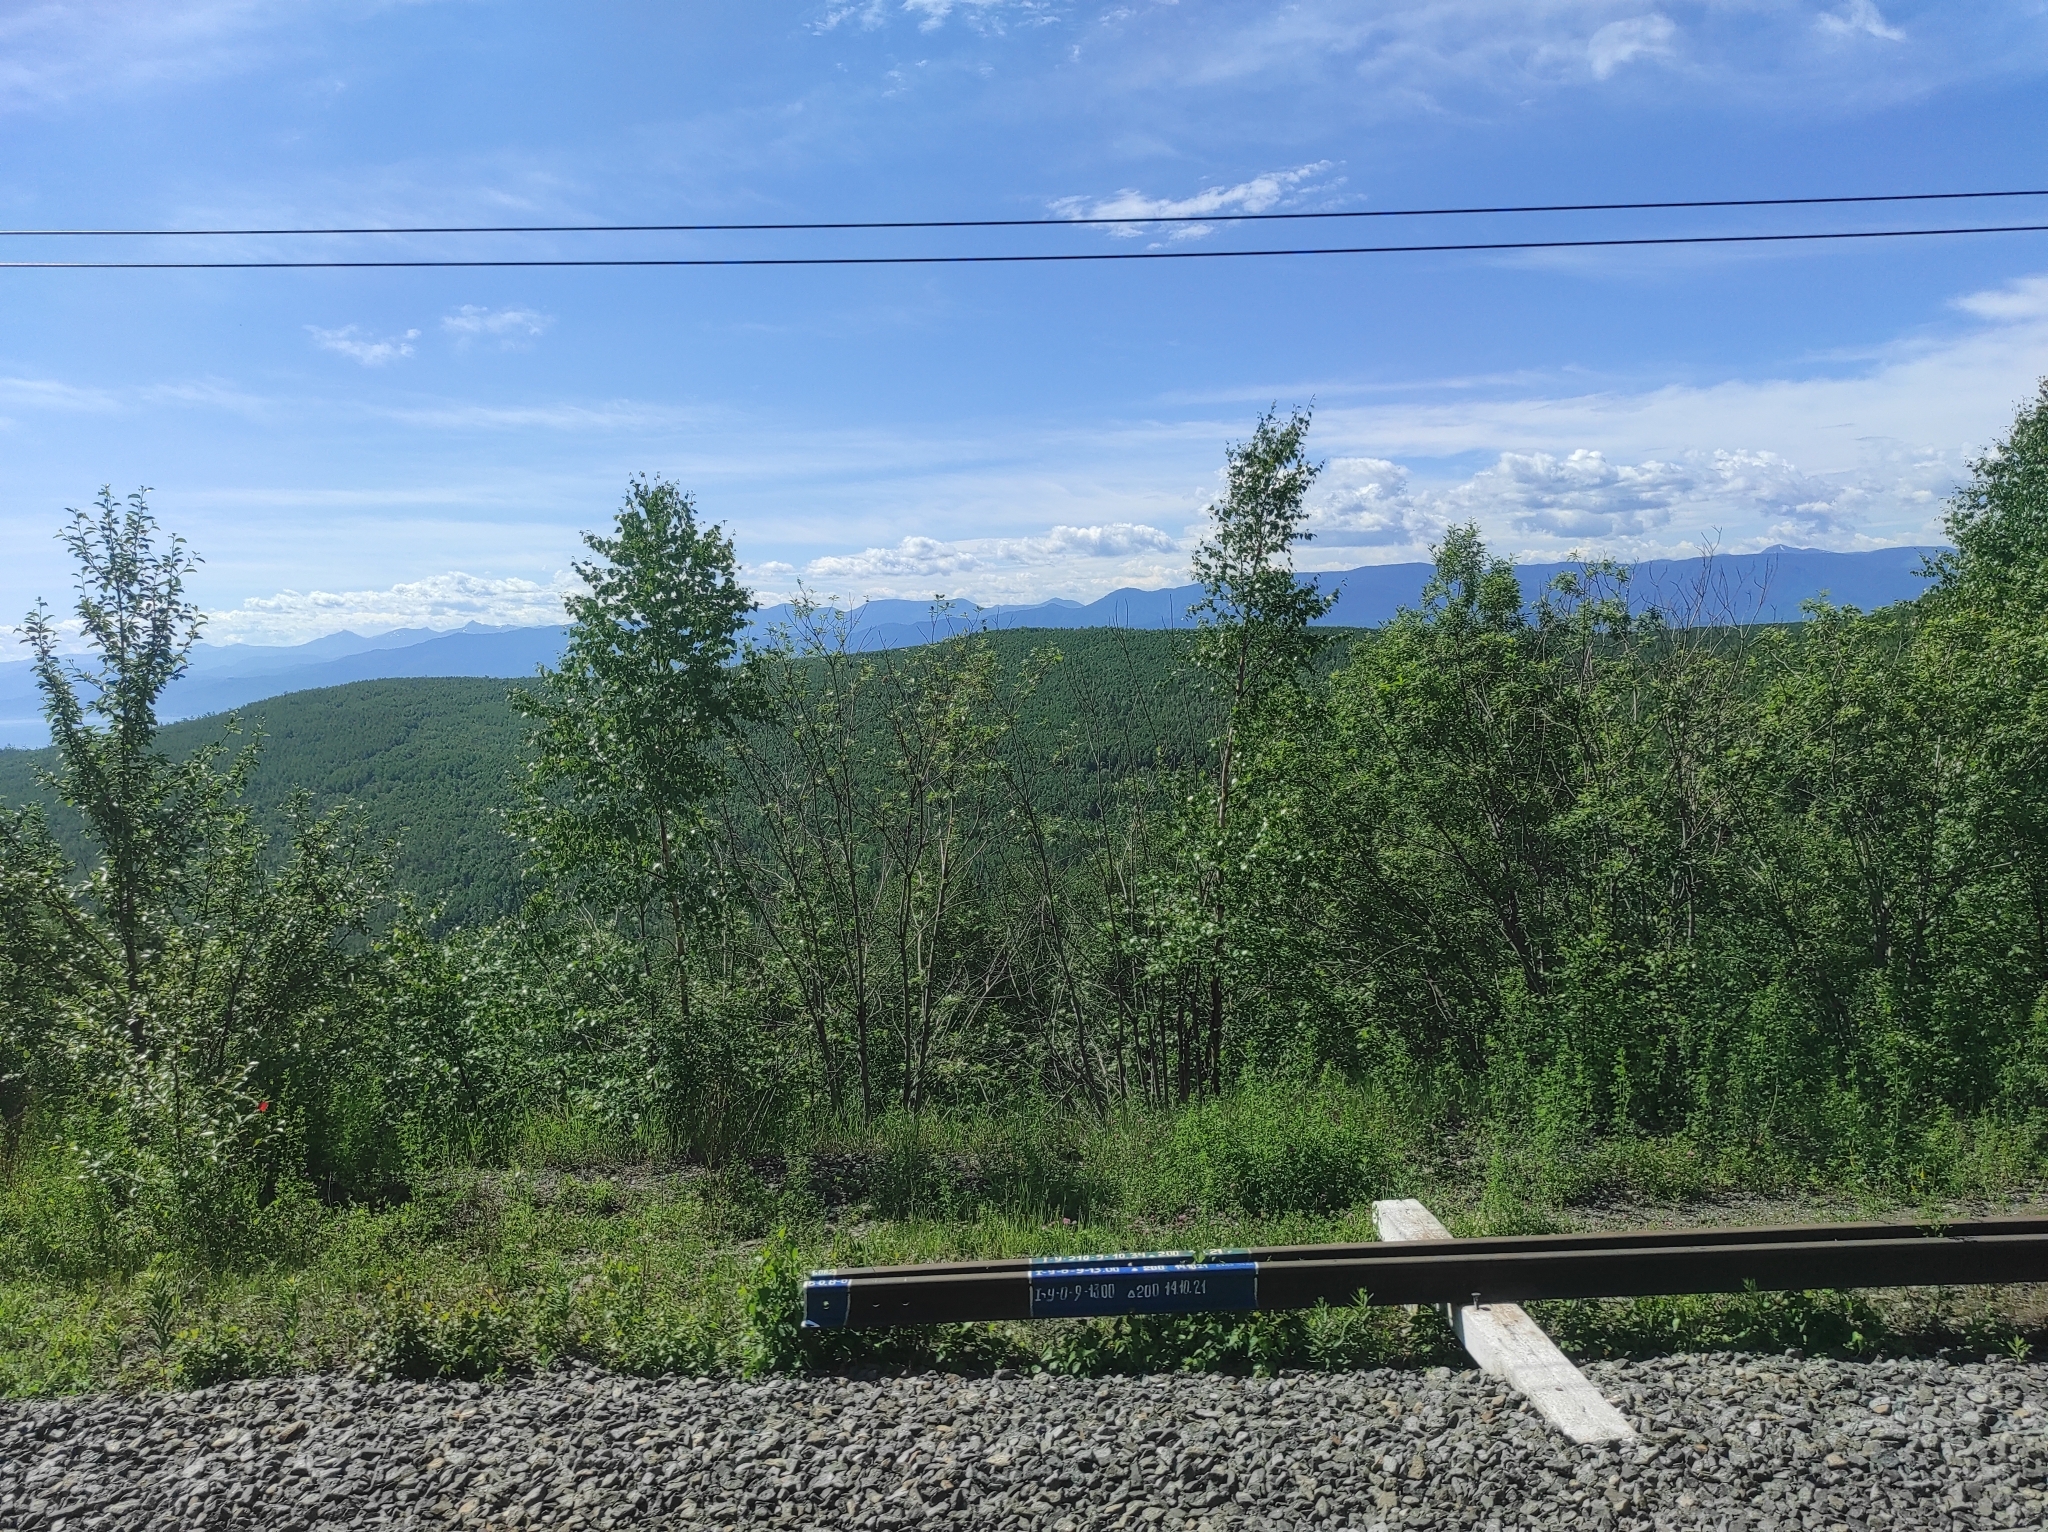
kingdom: Plantae
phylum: Tracheophyta
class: Magnoliopsida
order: Fagales
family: Betulaceae
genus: Betula
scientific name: Betula pendula
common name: Silver birch
